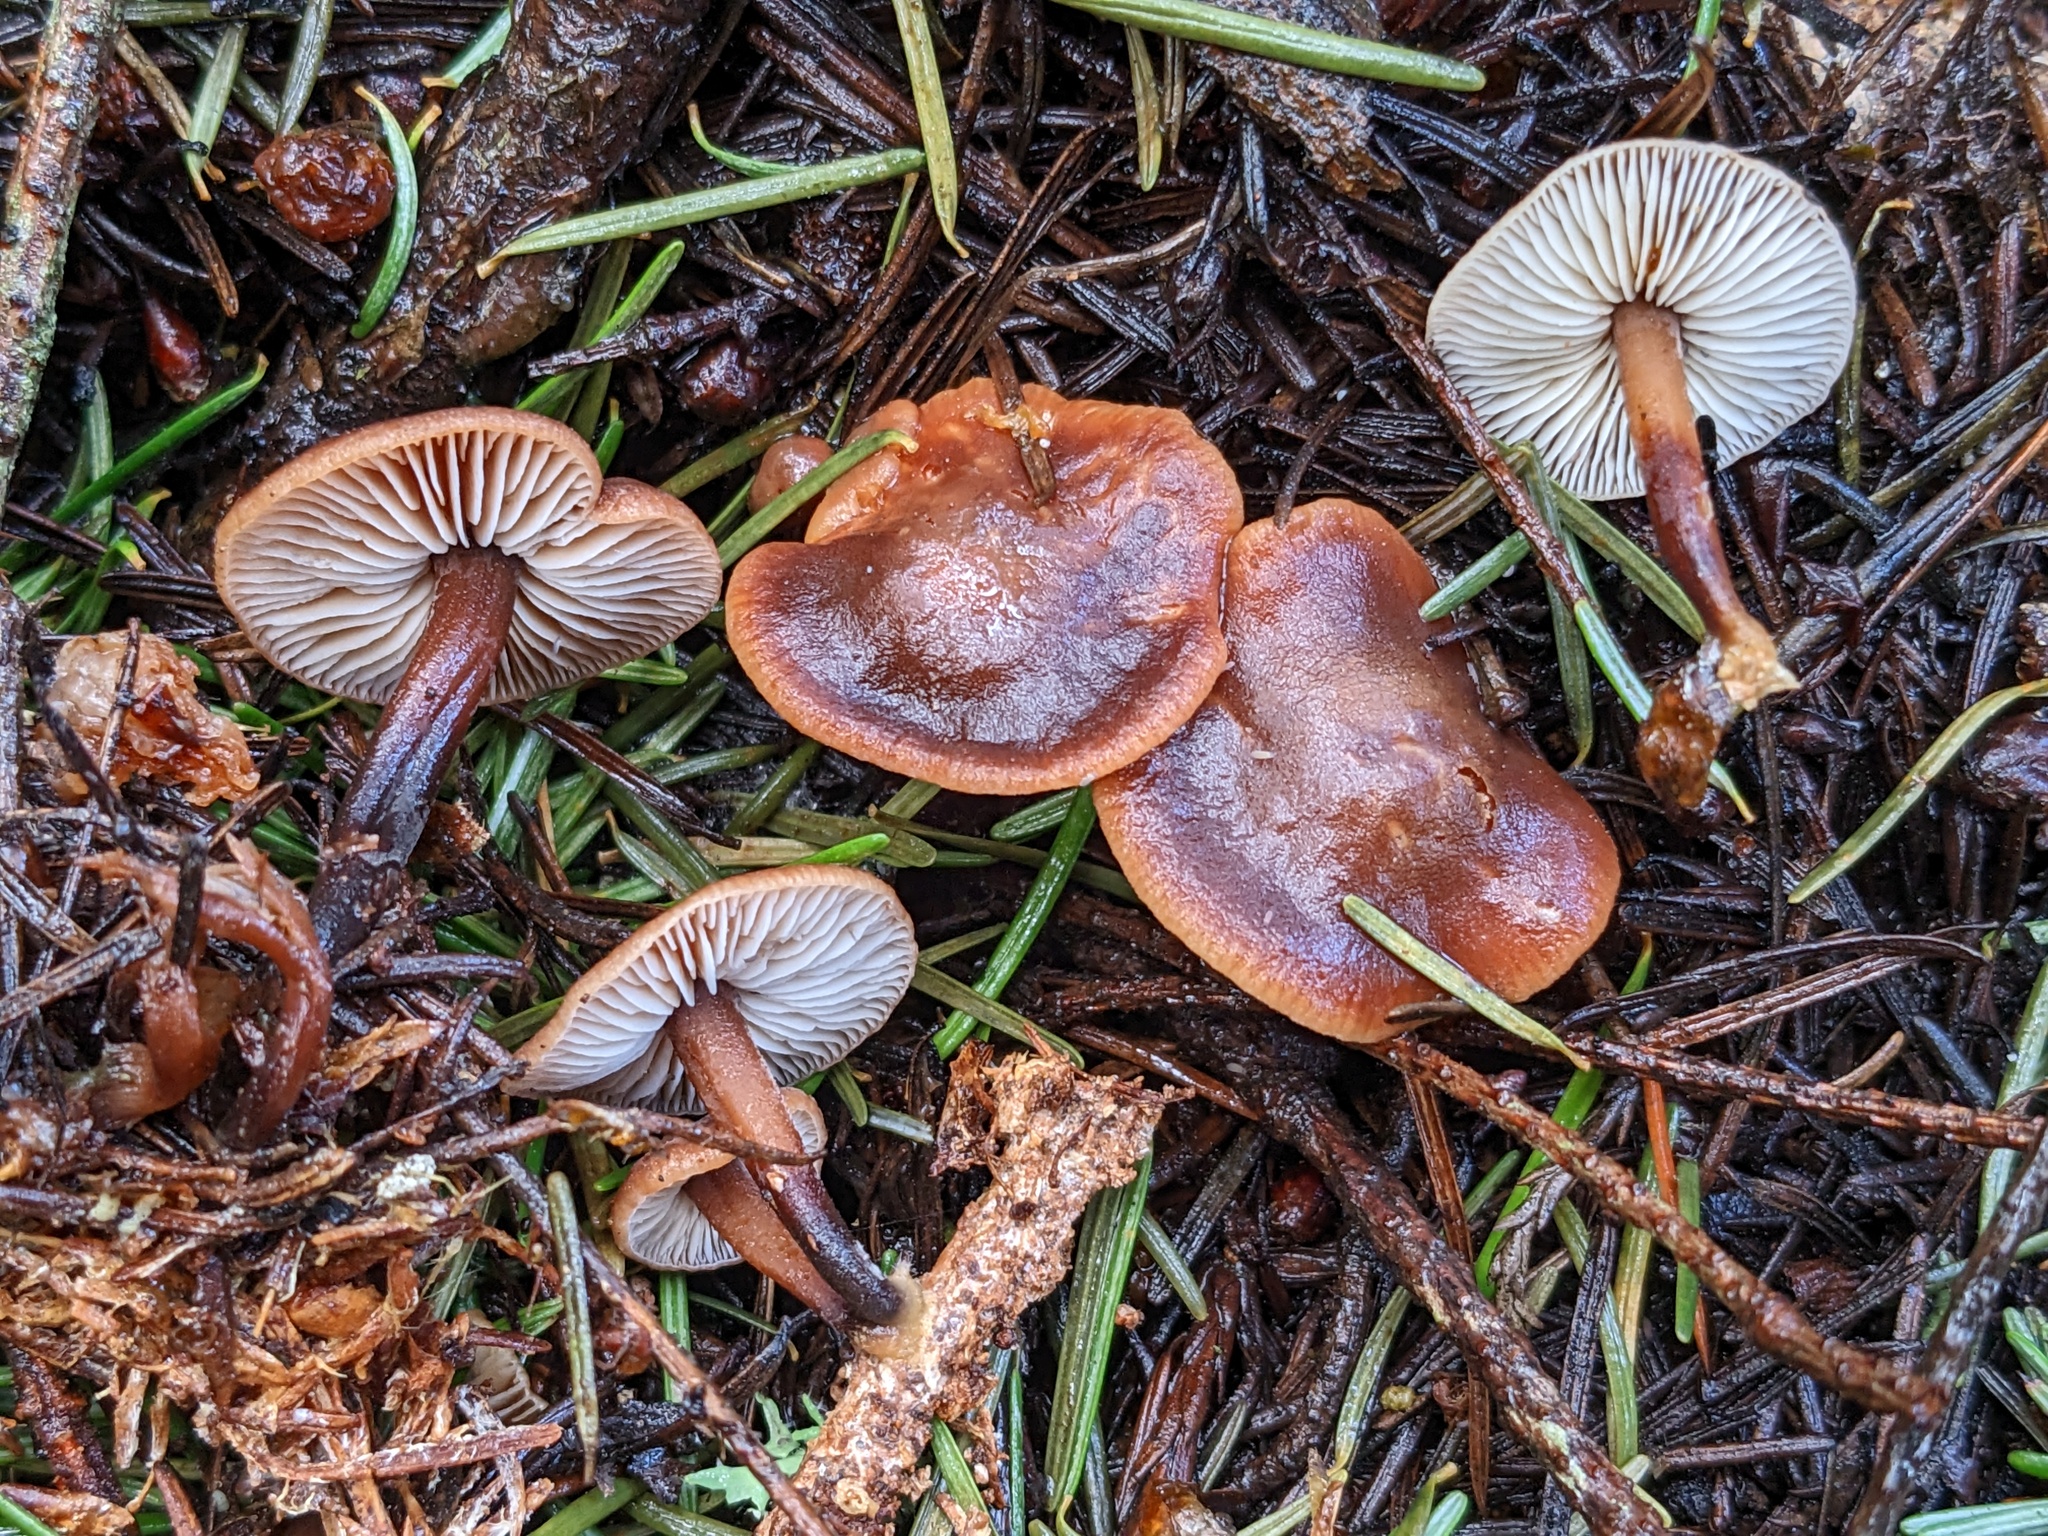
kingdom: Fungi
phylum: Basidiomycota
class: Agaricomycetes
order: Agaricales
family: Omphalotaceae
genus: Gymnopus
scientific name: Gymnopus brassicolens
